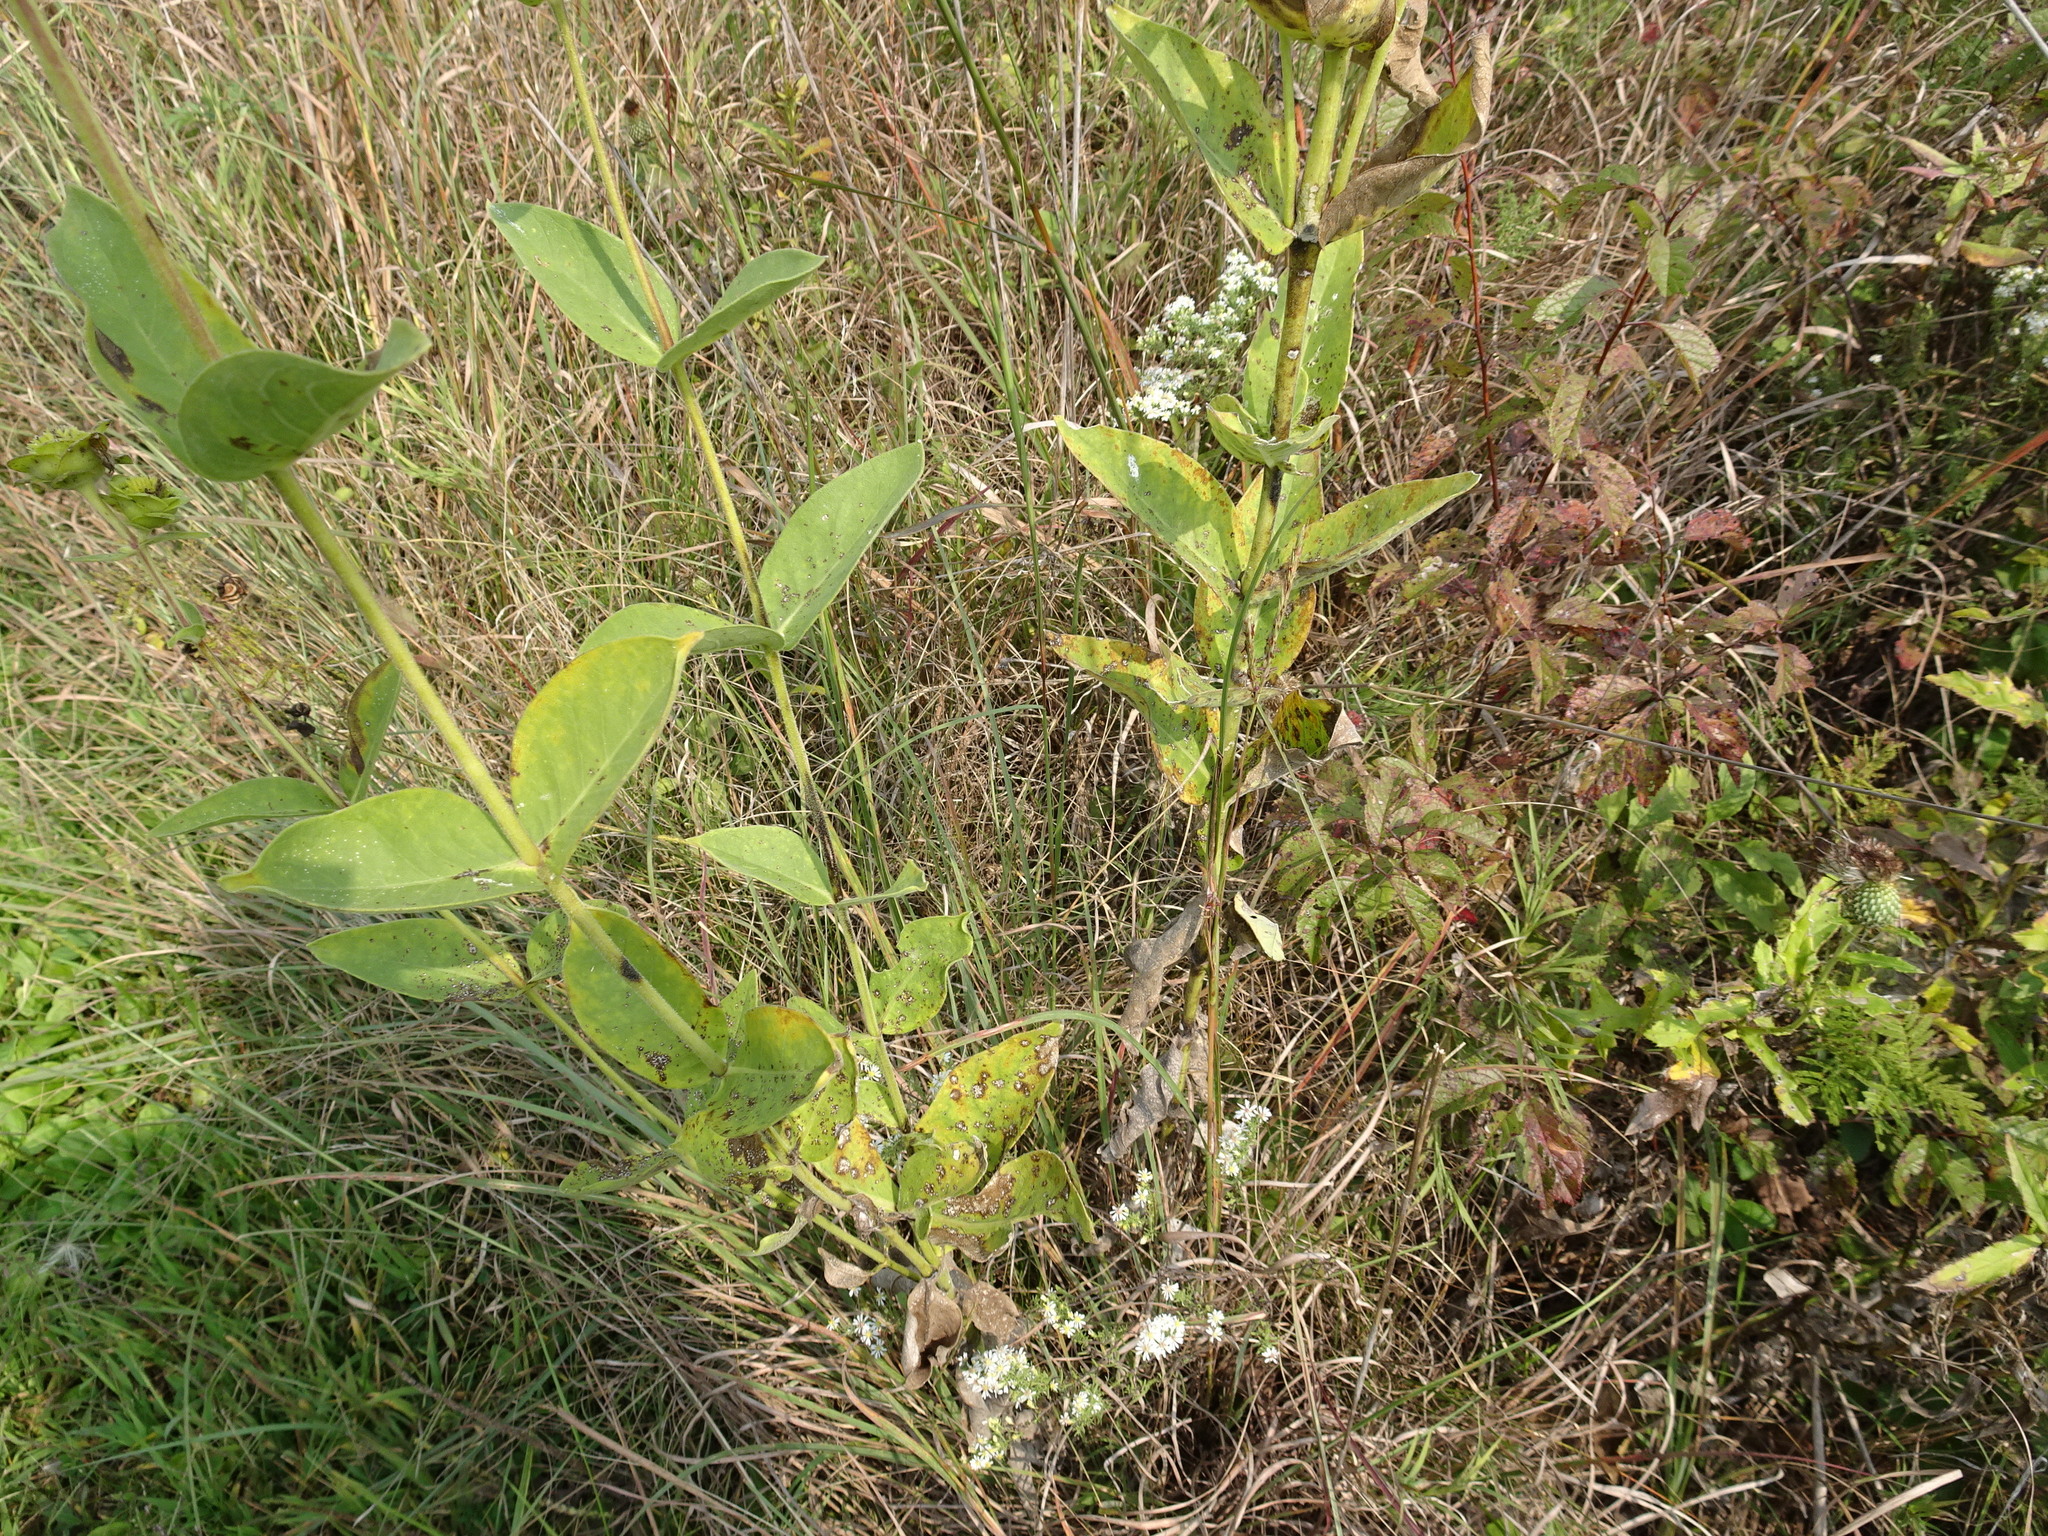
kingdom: Plantae
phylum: Tracheophyta
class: Magnoliopsida
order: Asterales
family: Asteraceae
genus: Silphium
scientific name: Silphium integrifolium
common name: Whole-leaf rosinweed
